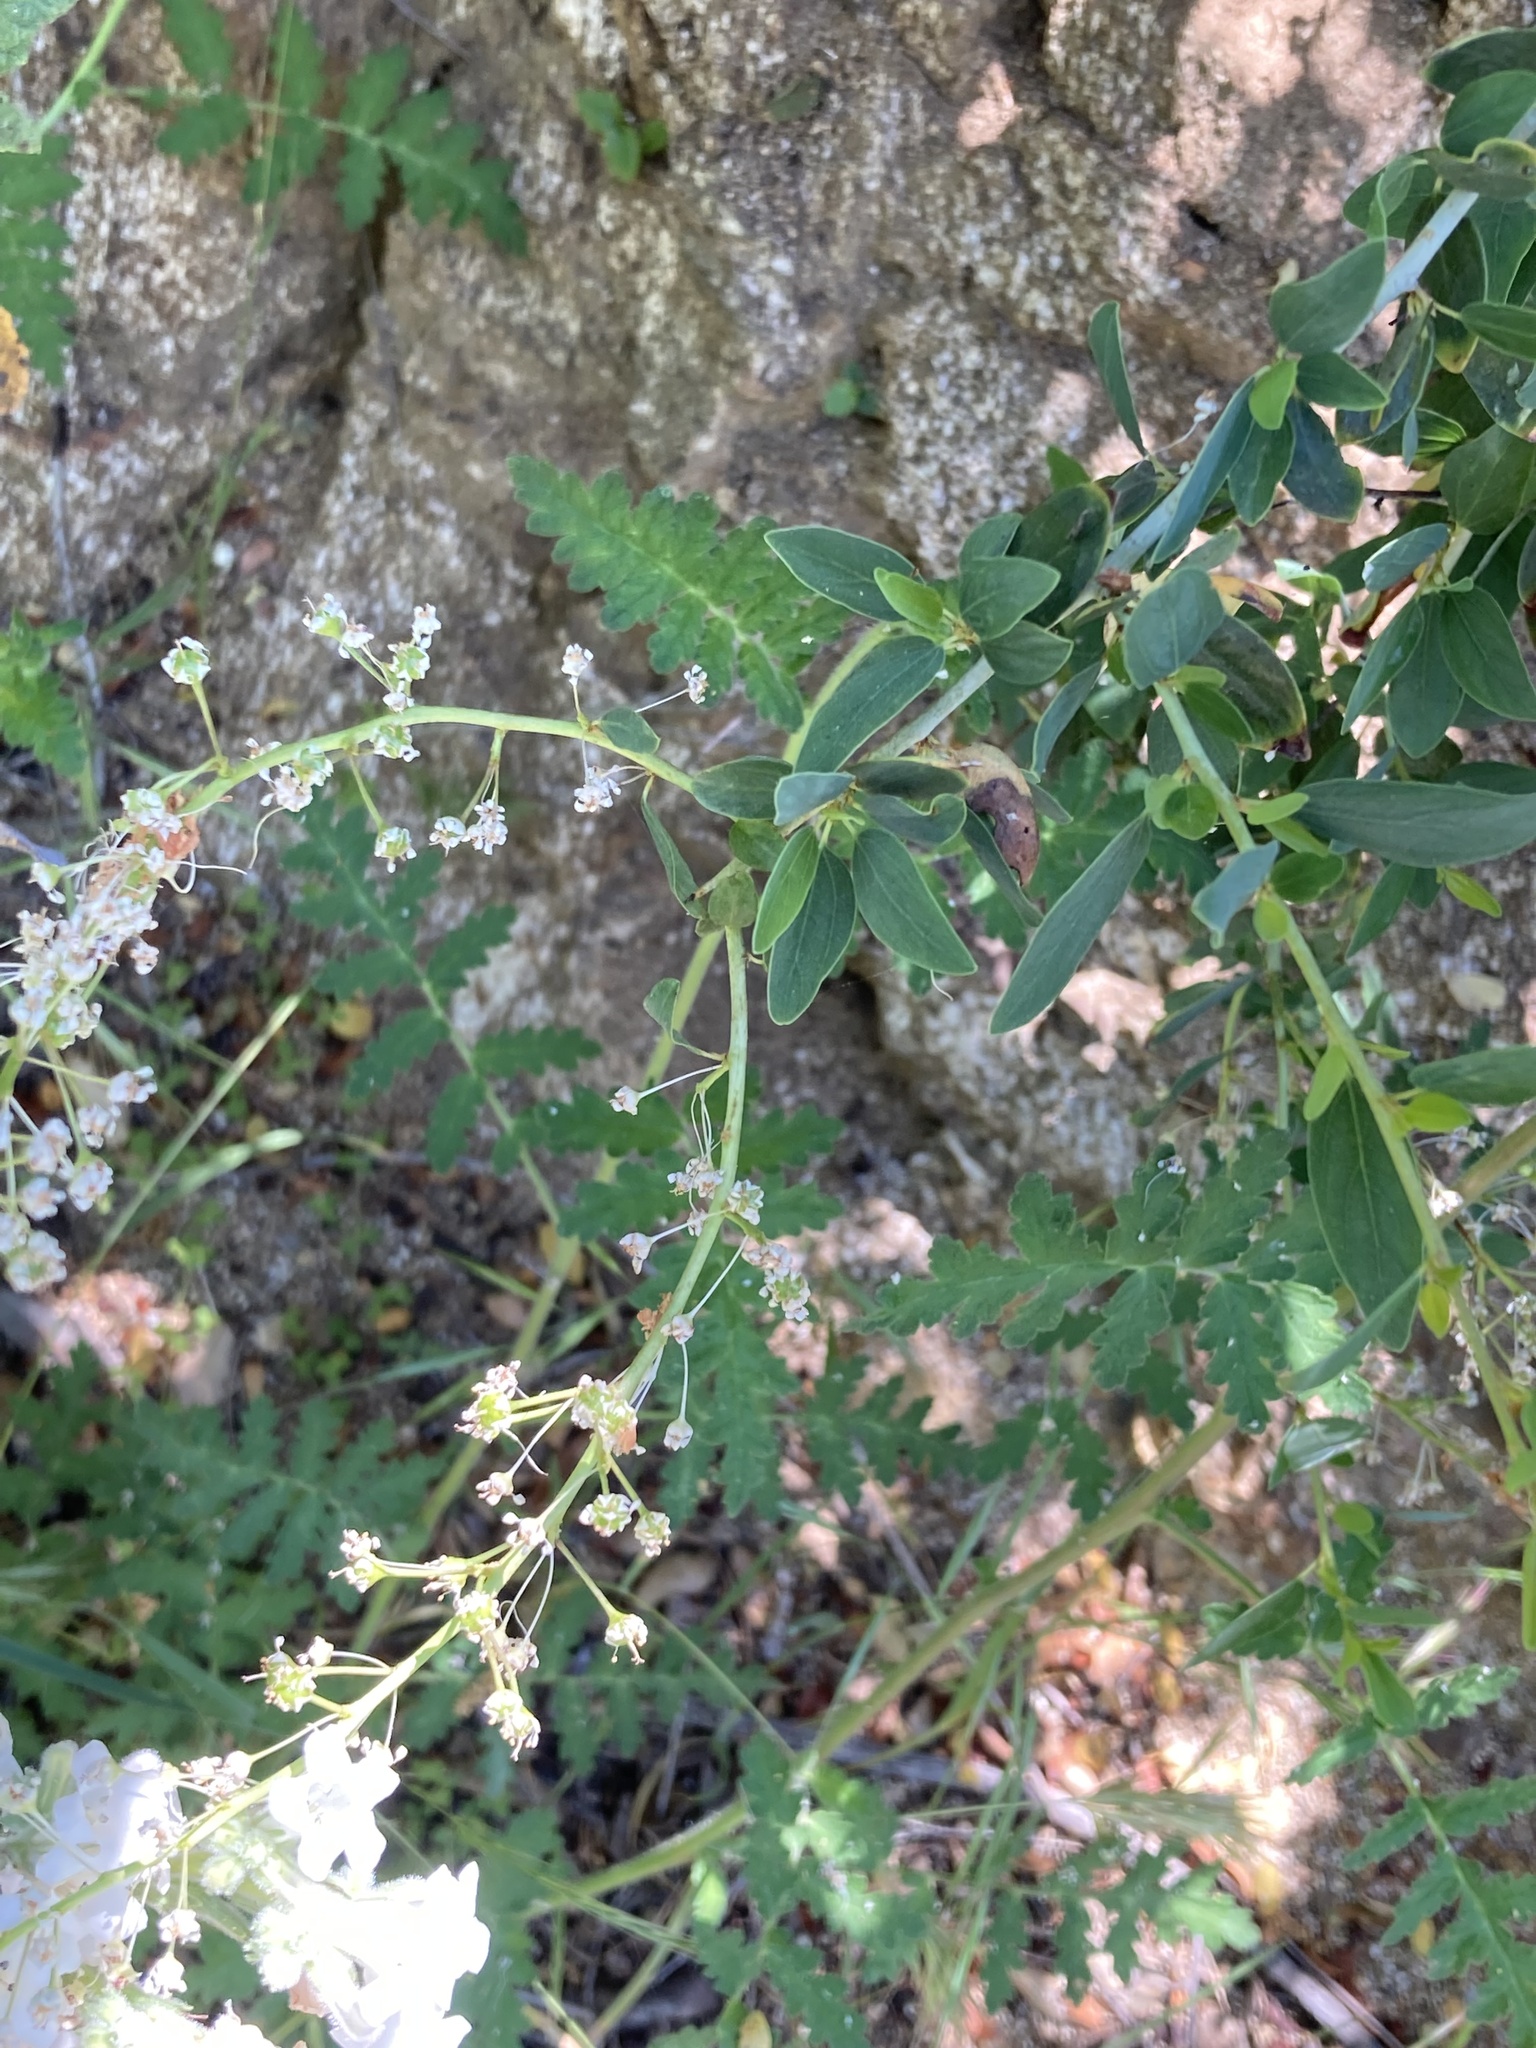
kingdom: Plantae
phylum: Tracheophyta
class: Magnoliopsida
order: Fabales
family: Fabaceae
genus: Lathyrus
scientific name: Lathyrus vestitus
